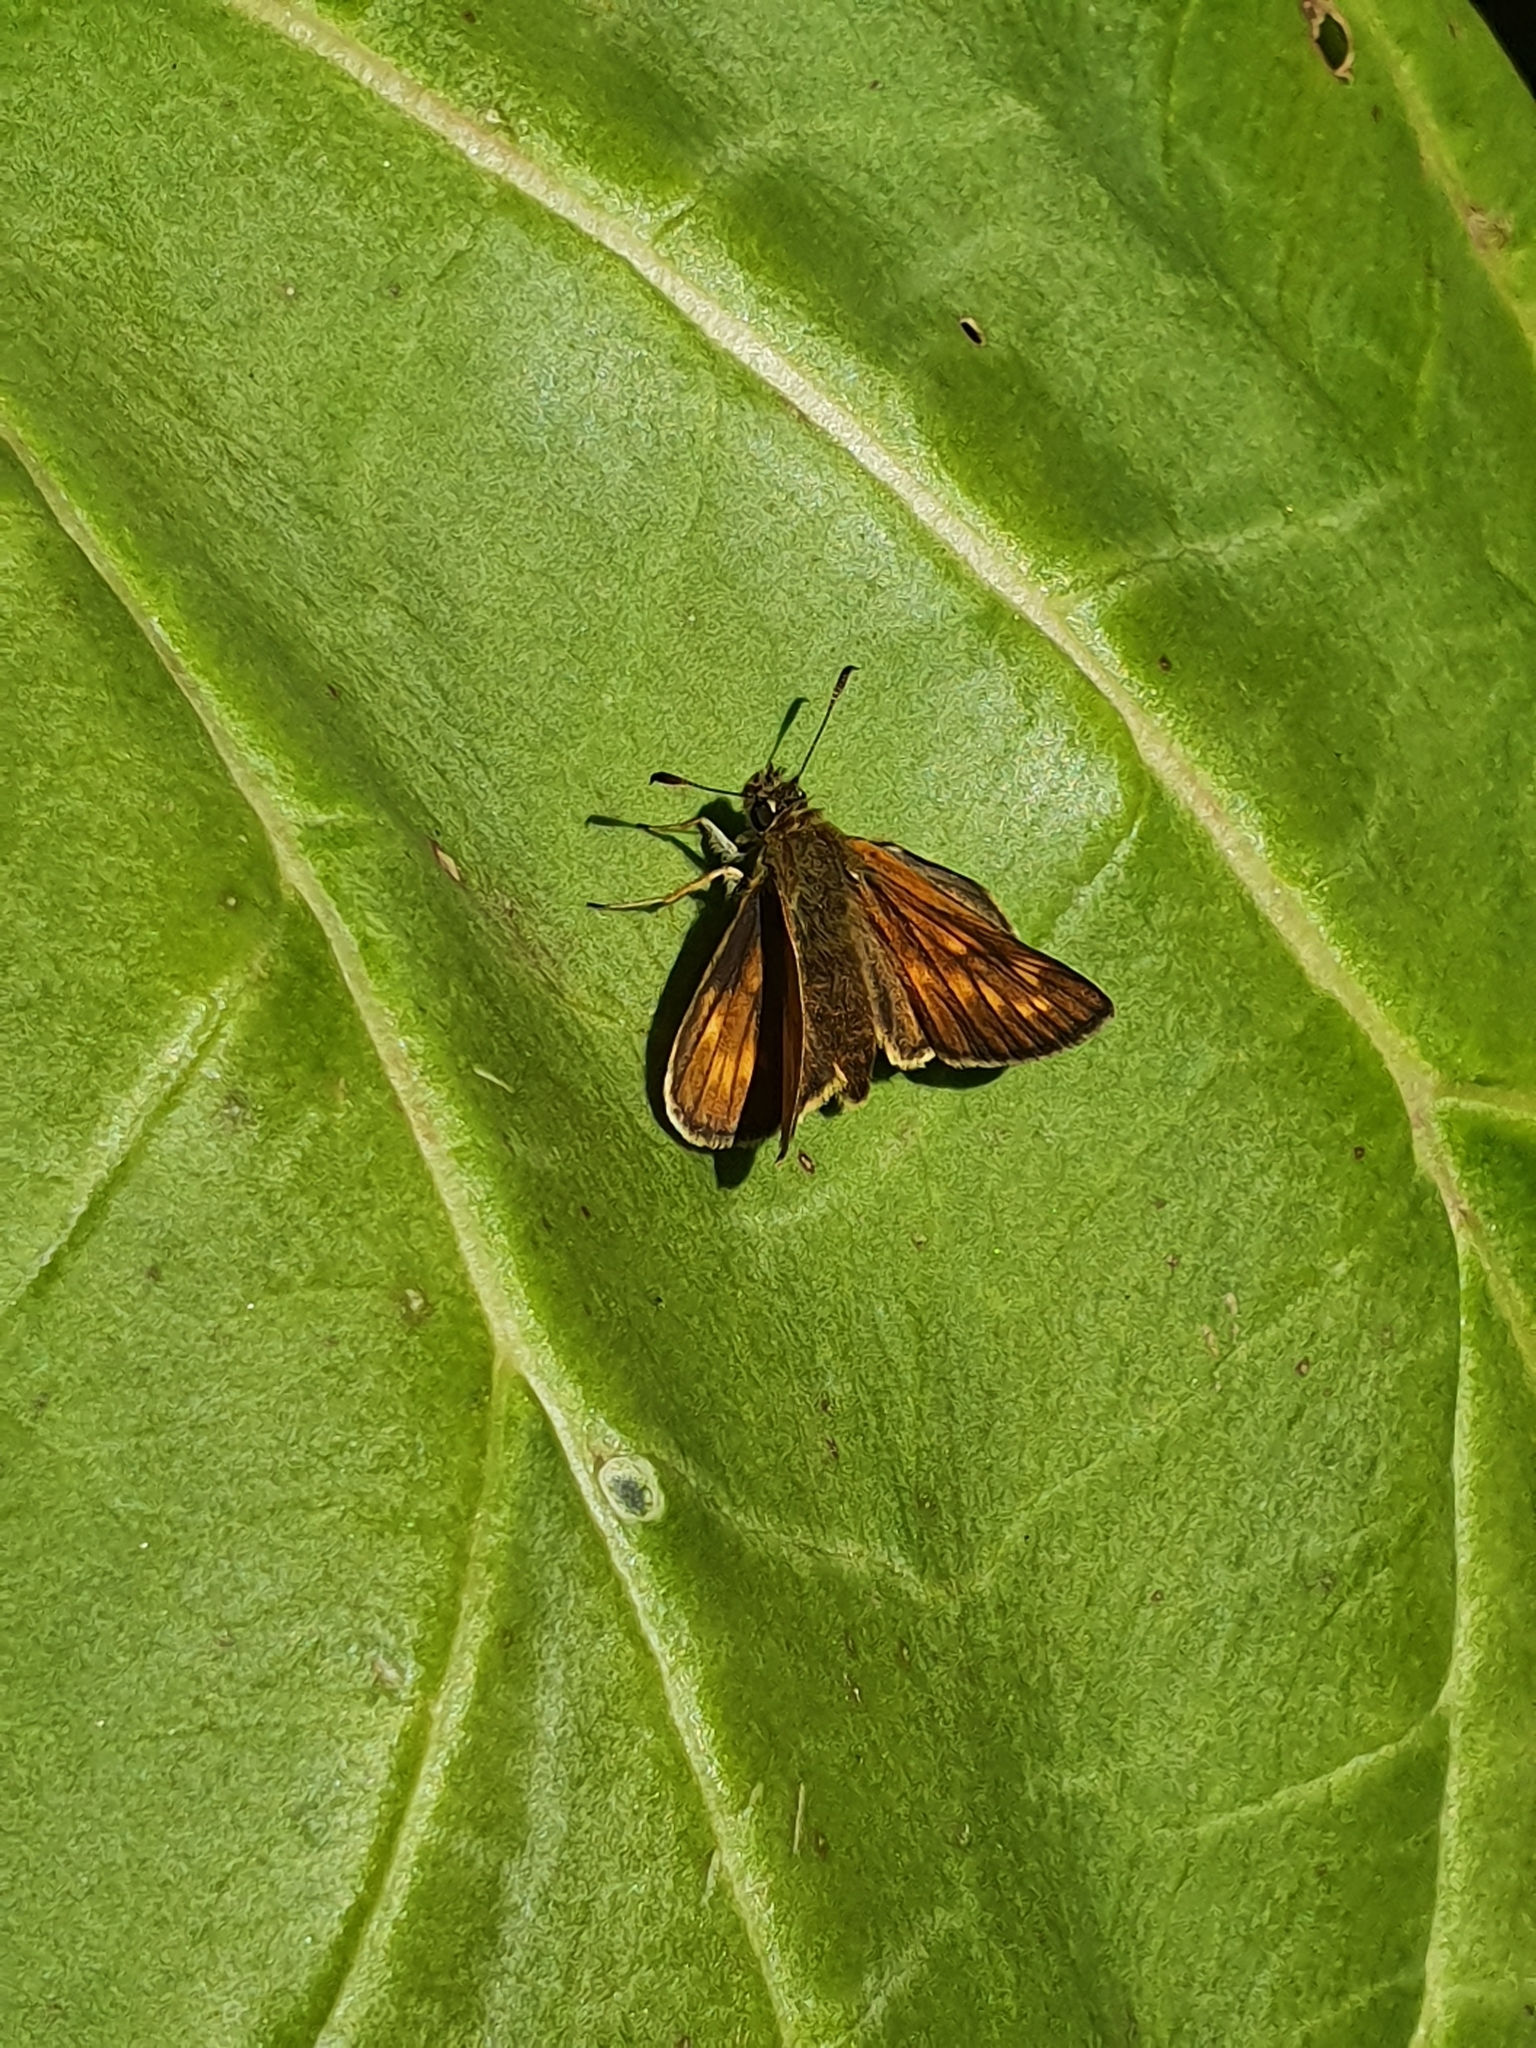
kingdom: Animalia
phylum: Arthropoda
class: Insecta
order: Lepidoptera
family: Hesperiidae
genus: Ochlodes
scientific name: Ochlodes venata
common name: Large skipper
